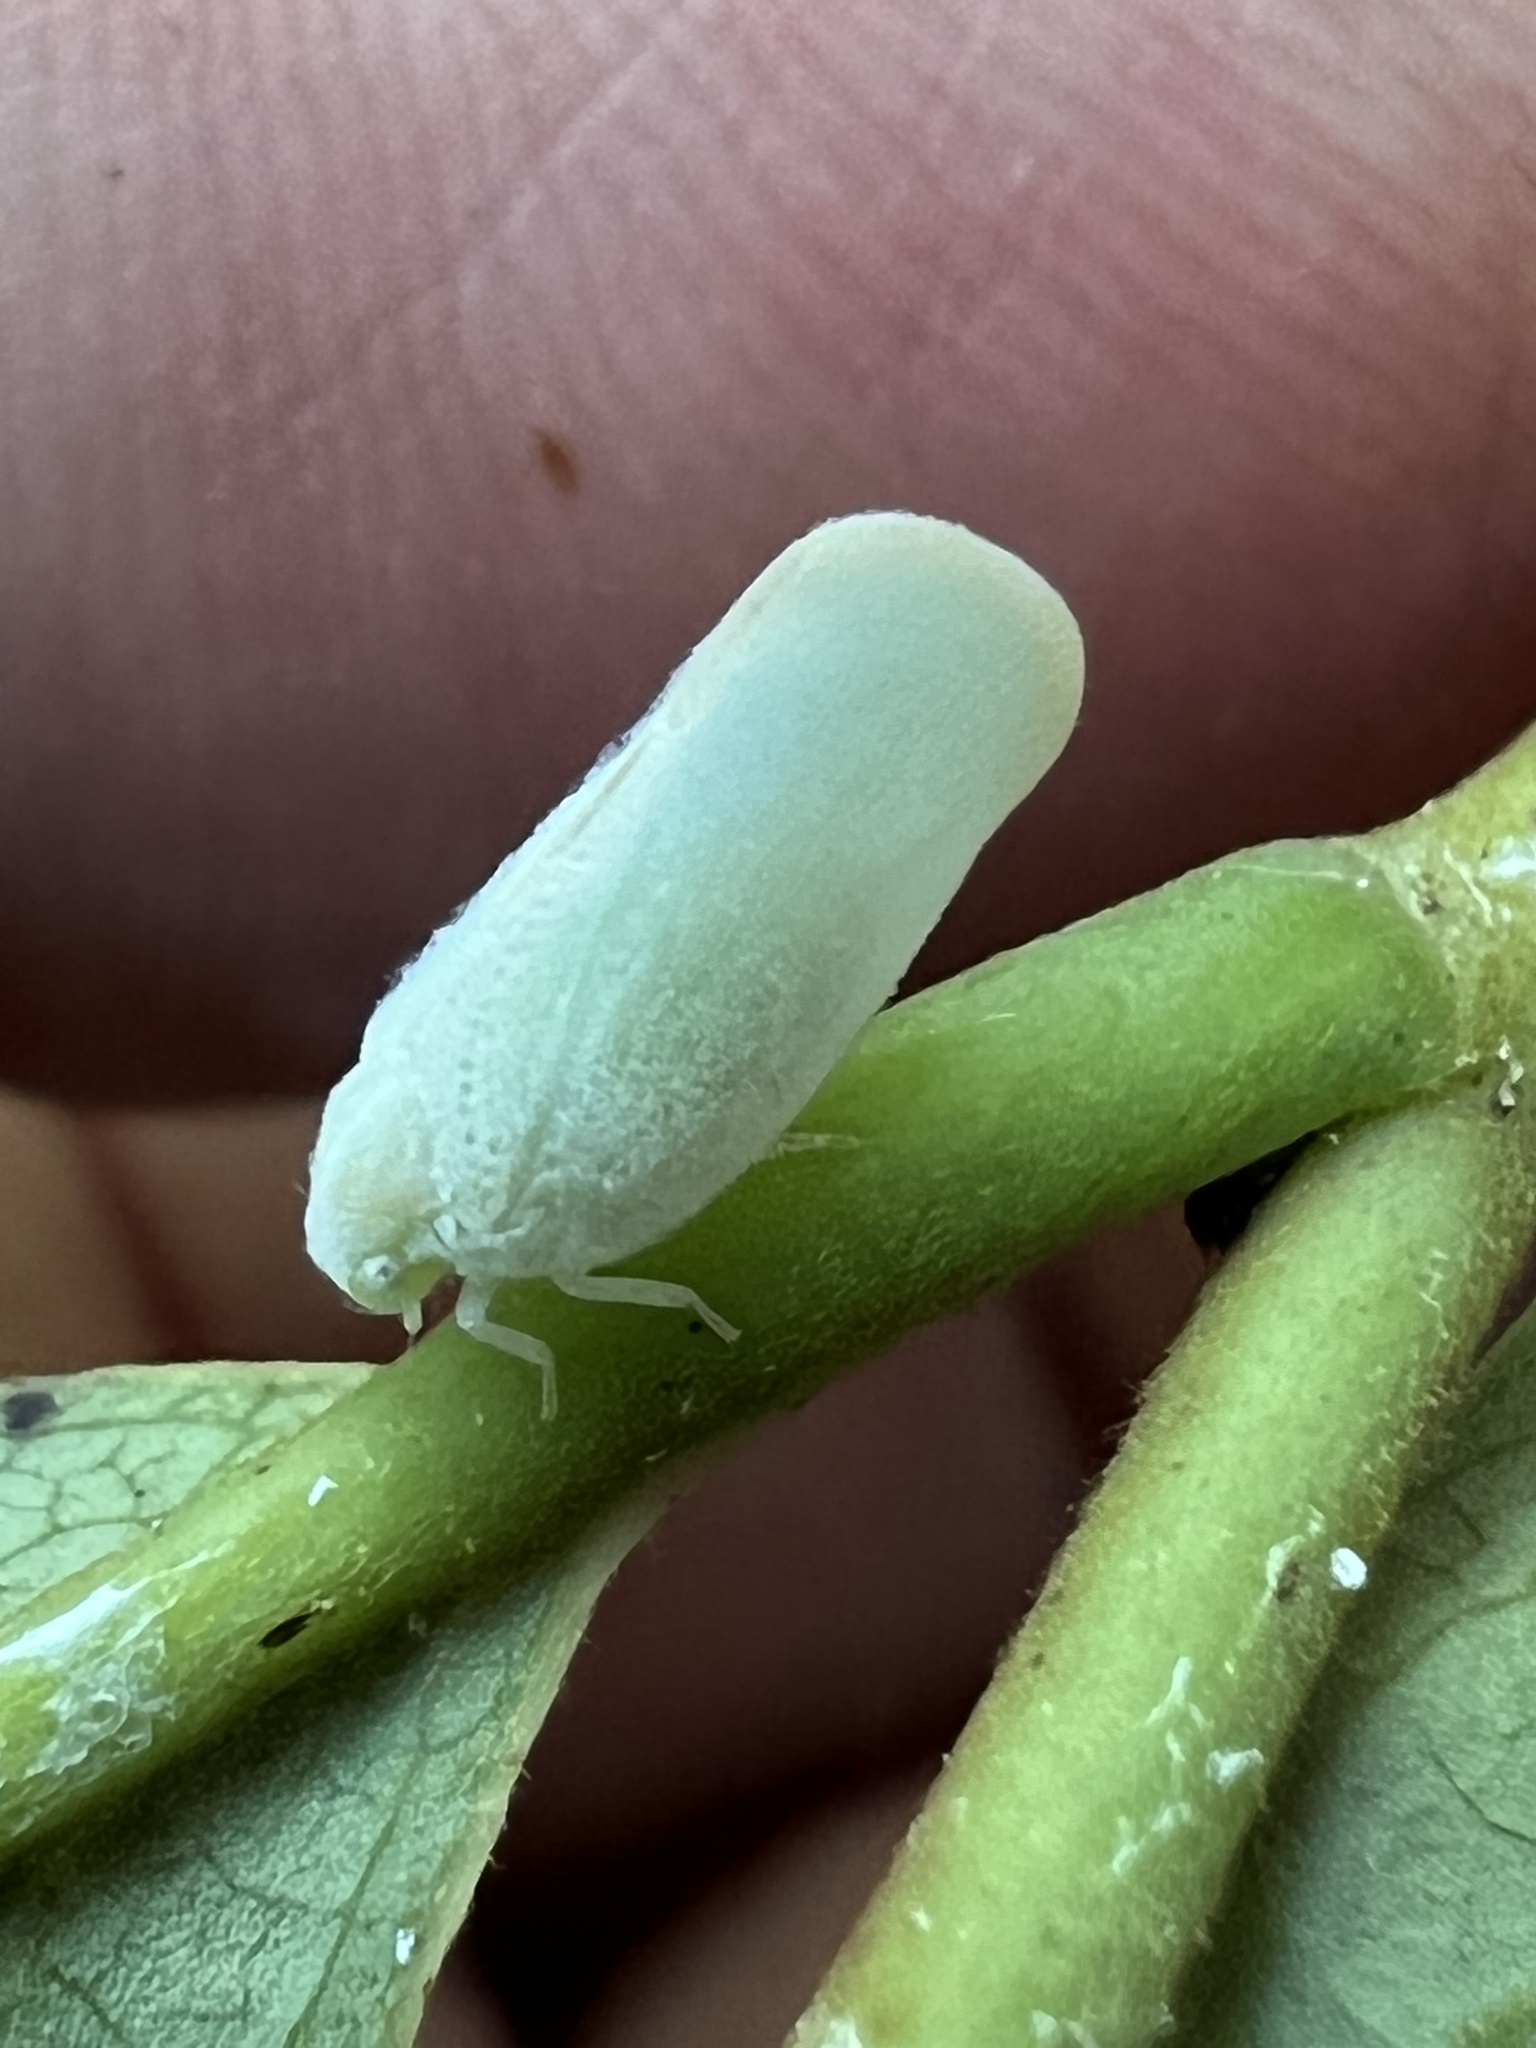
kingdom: Animalia
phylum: Arthropoda
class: Insecta
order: Hemiptera
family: Flatidae
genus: Ormenoides
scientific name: Ormenoides venusta
